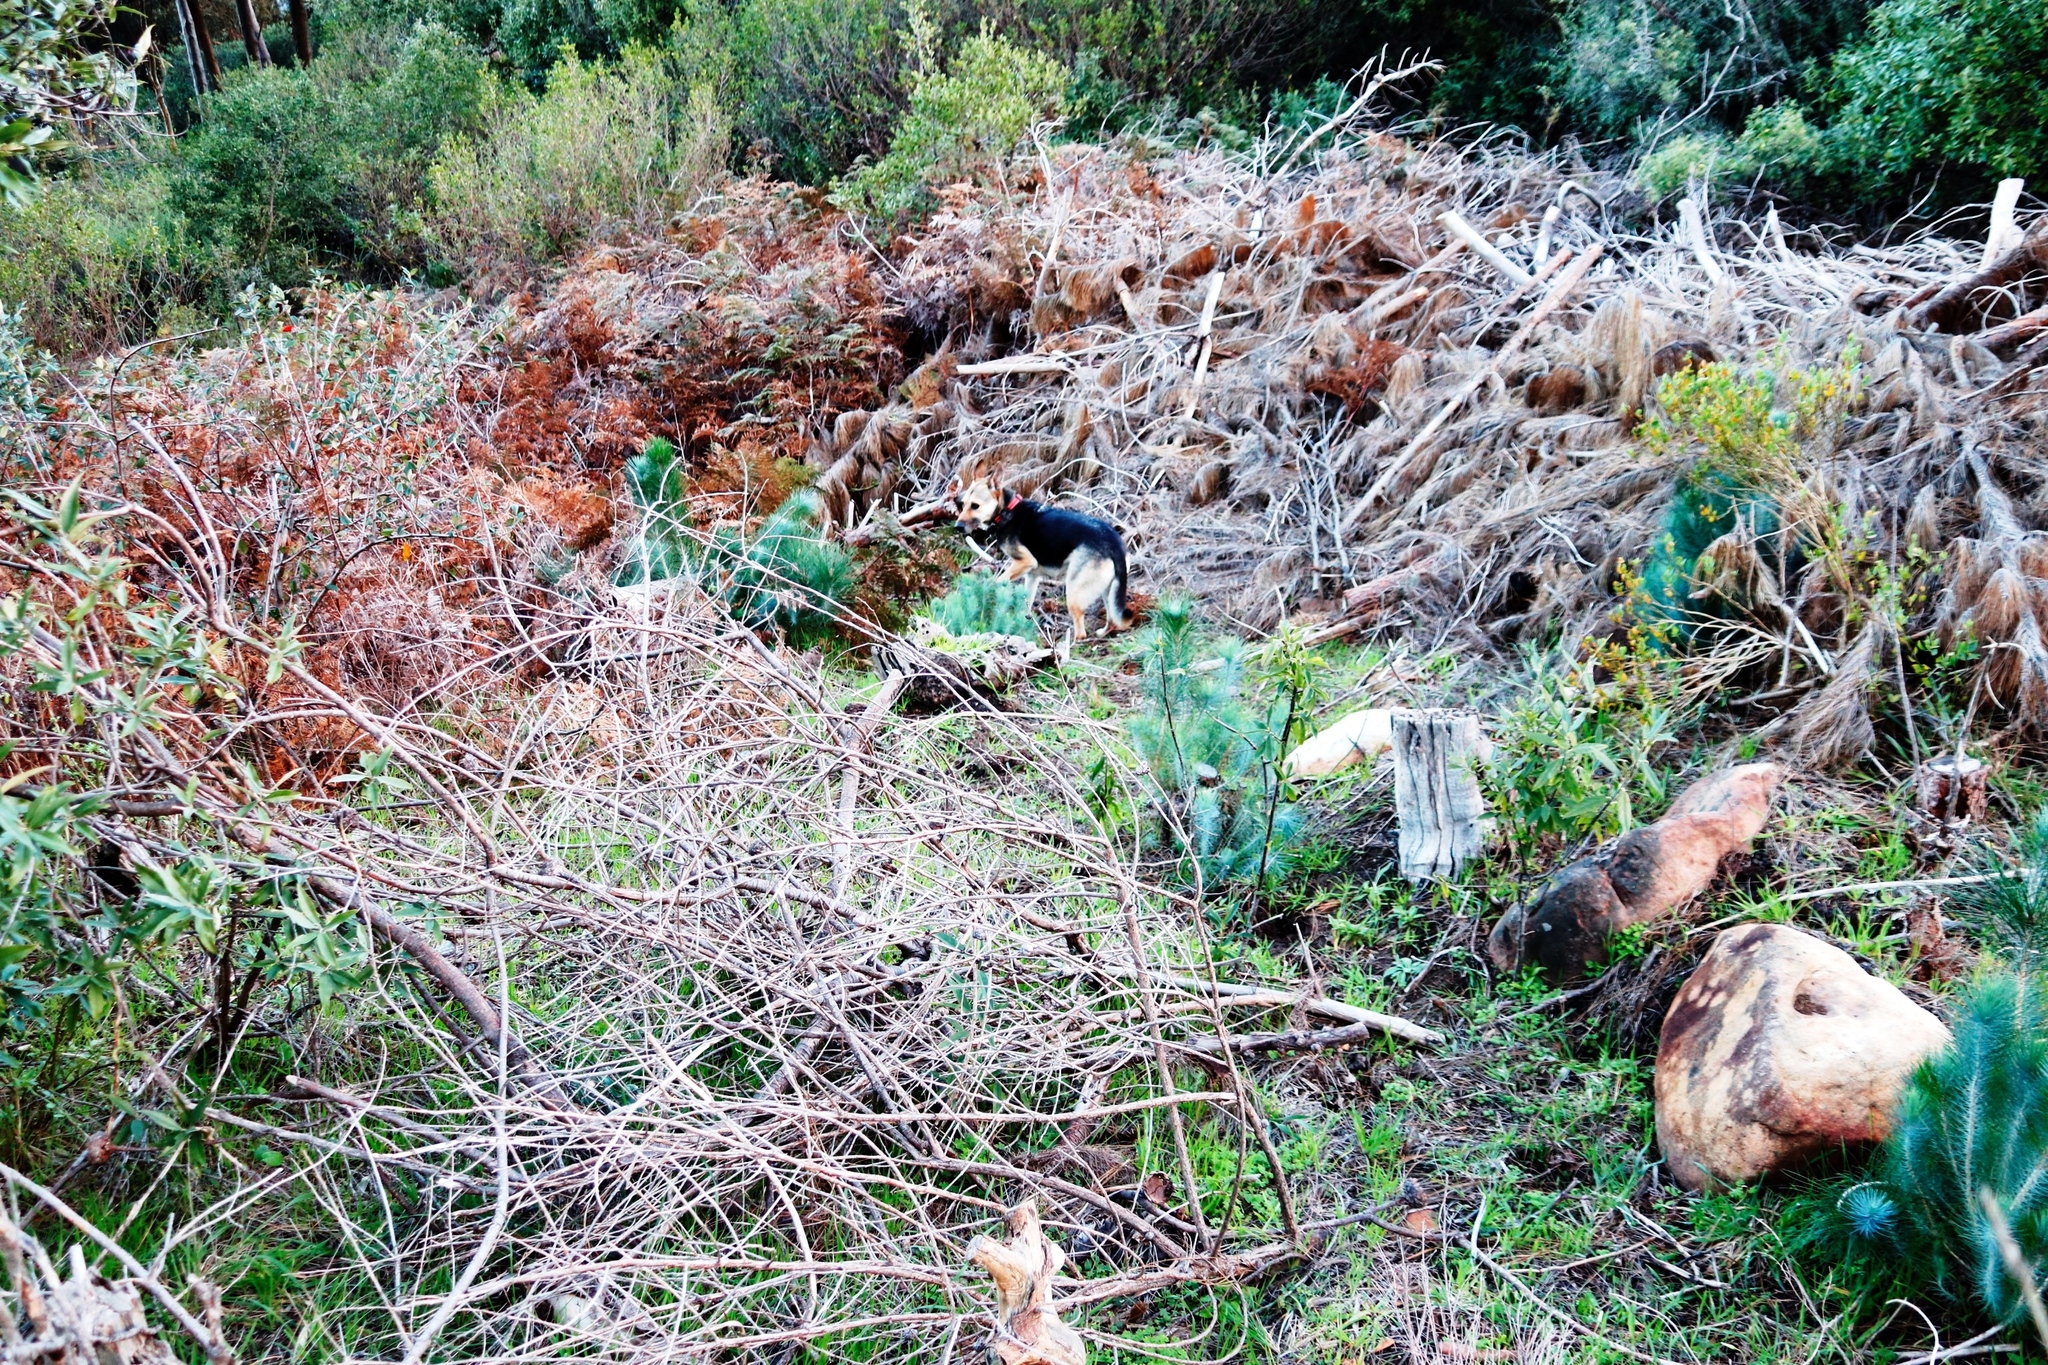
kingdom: Plantae
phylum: Tracheophyta
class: Pinopsida
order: Pinales
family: Pinaceae
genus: Pinus
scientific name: Pinus canariensis
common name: Canary islands pine
